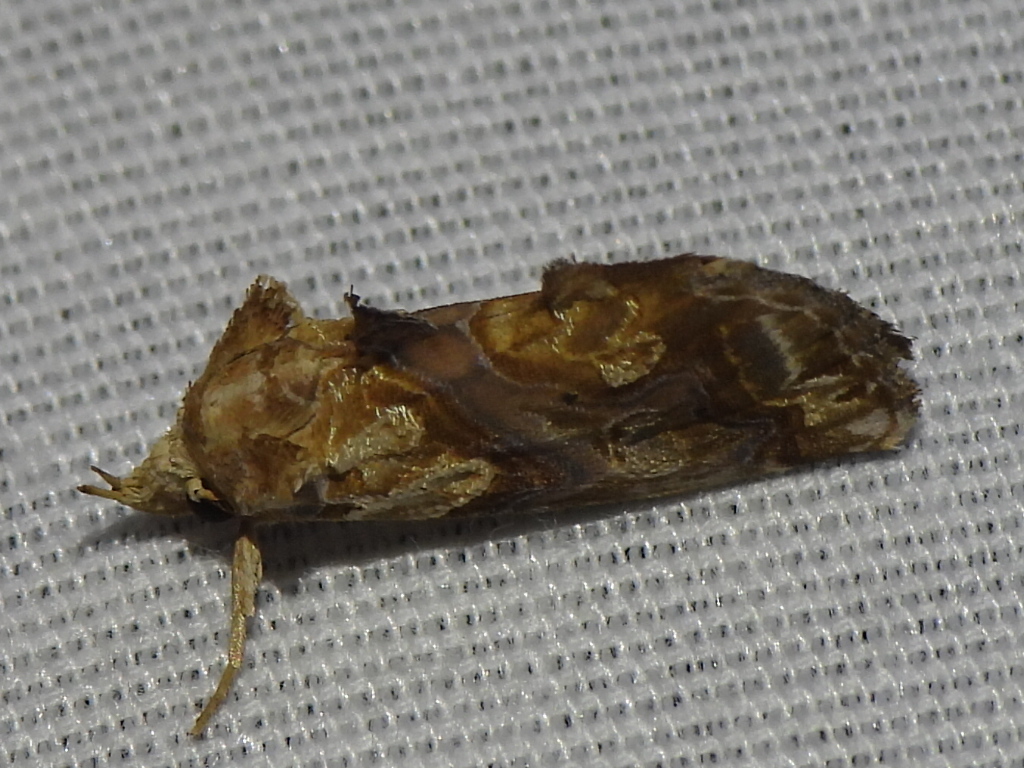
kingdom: Animalia
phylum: Arthropoda
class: Insecta
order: Lepidoptera
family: Erebidae
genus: Plusiodonta
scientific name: Plusiodonta compressipalpis
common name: Moonseed moth
